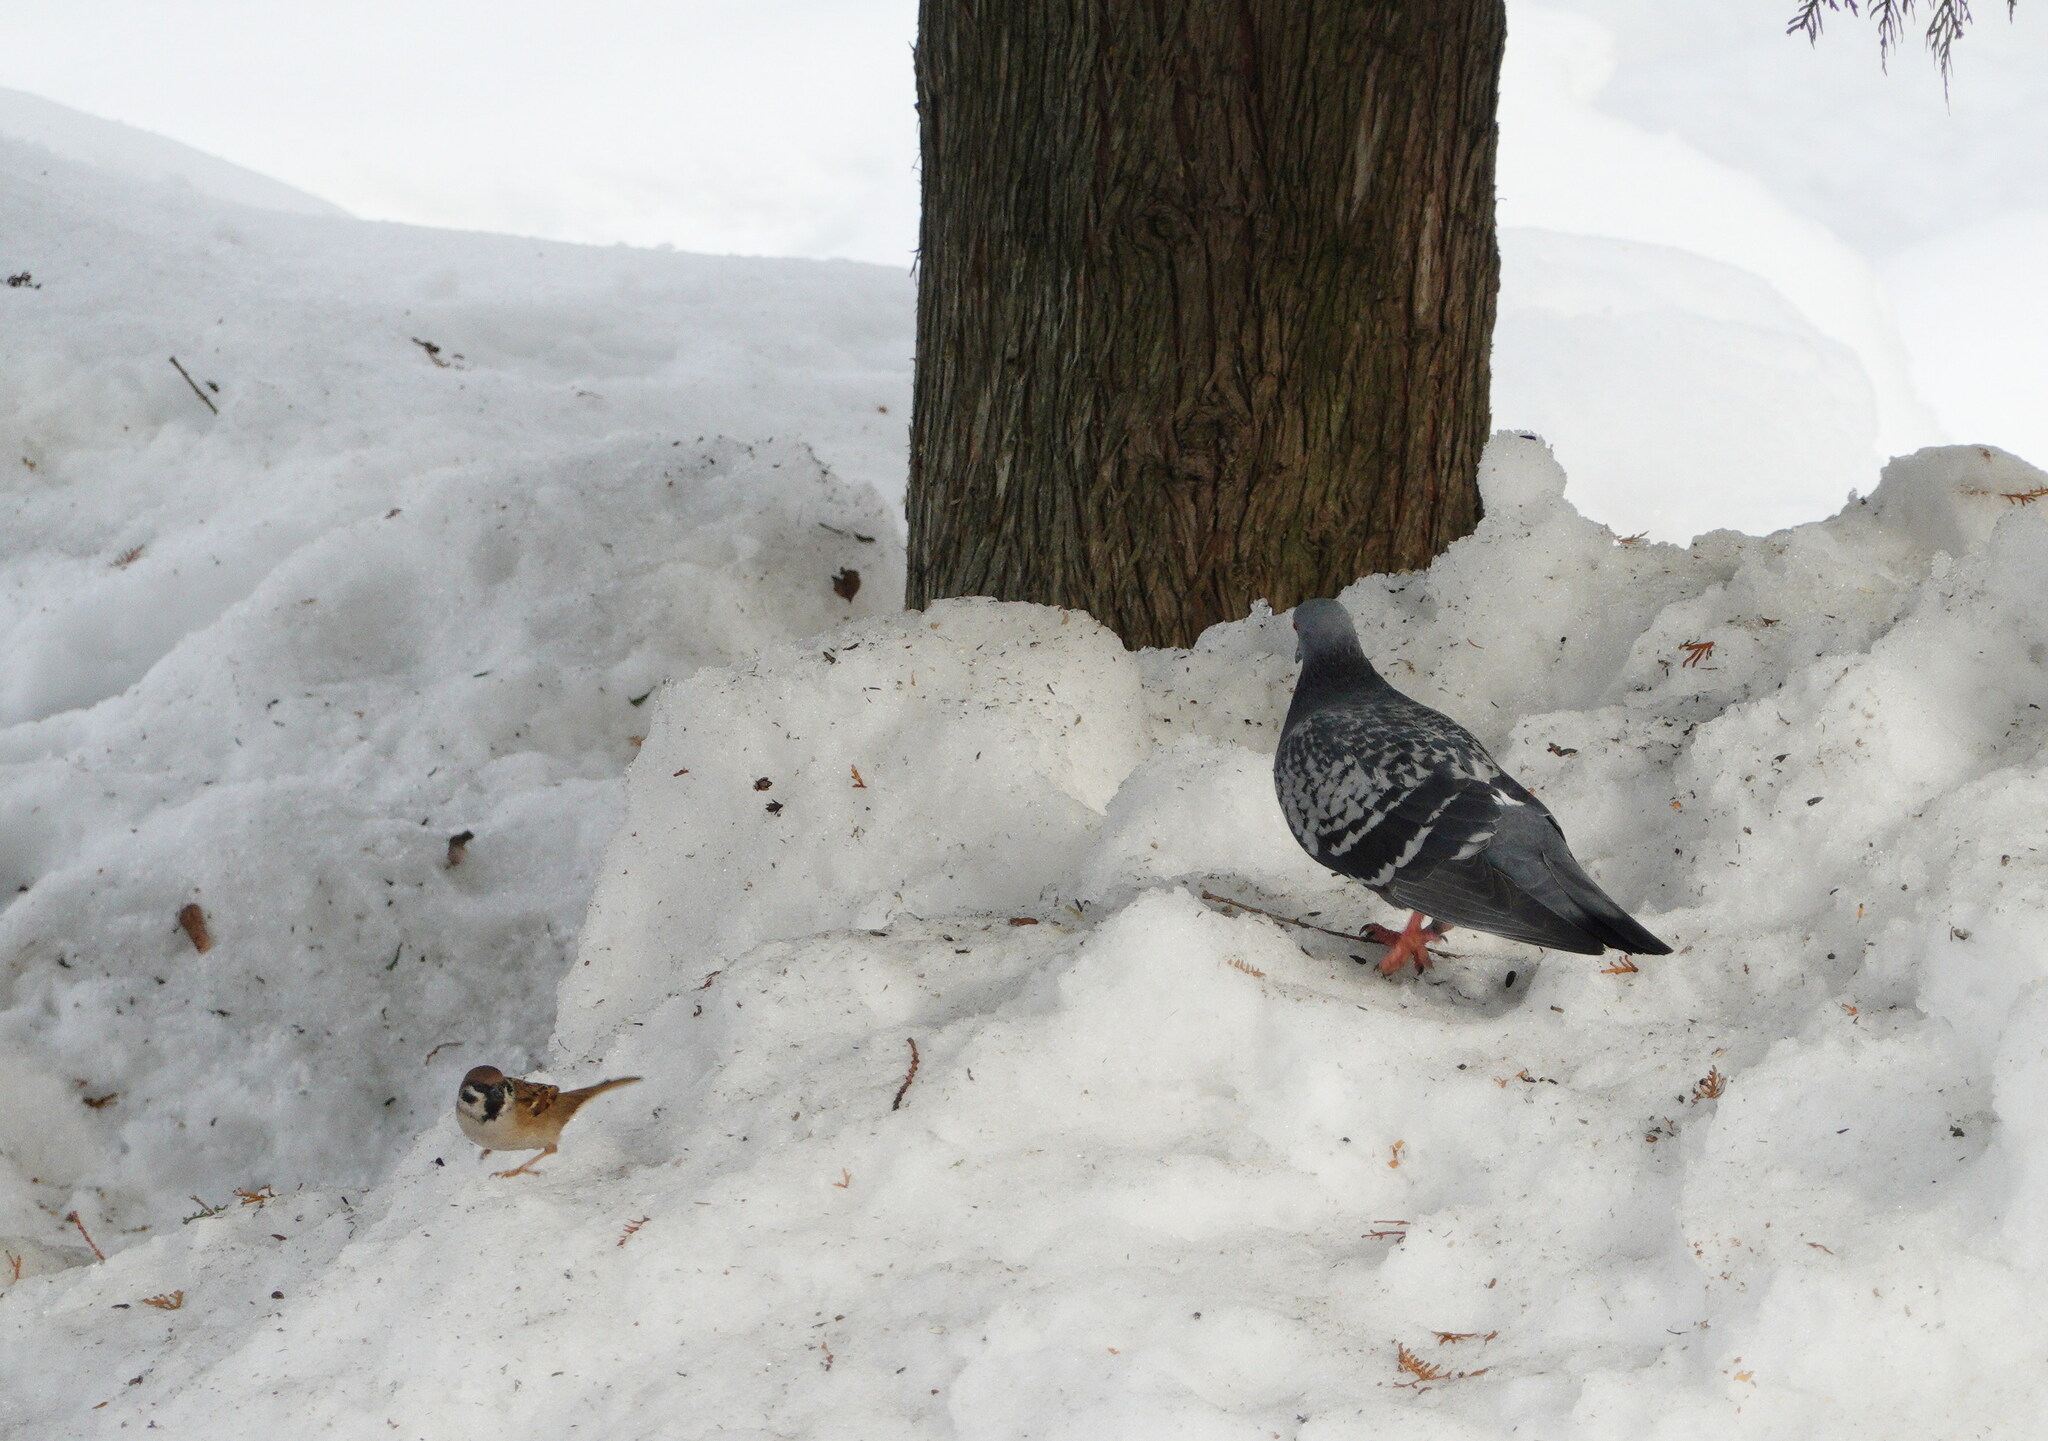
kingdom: Animalia
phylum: Chordata
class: Aves
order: Columbiformes
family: Columbidae
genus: Columba
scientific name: Columba livia
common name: Rock pigeon
